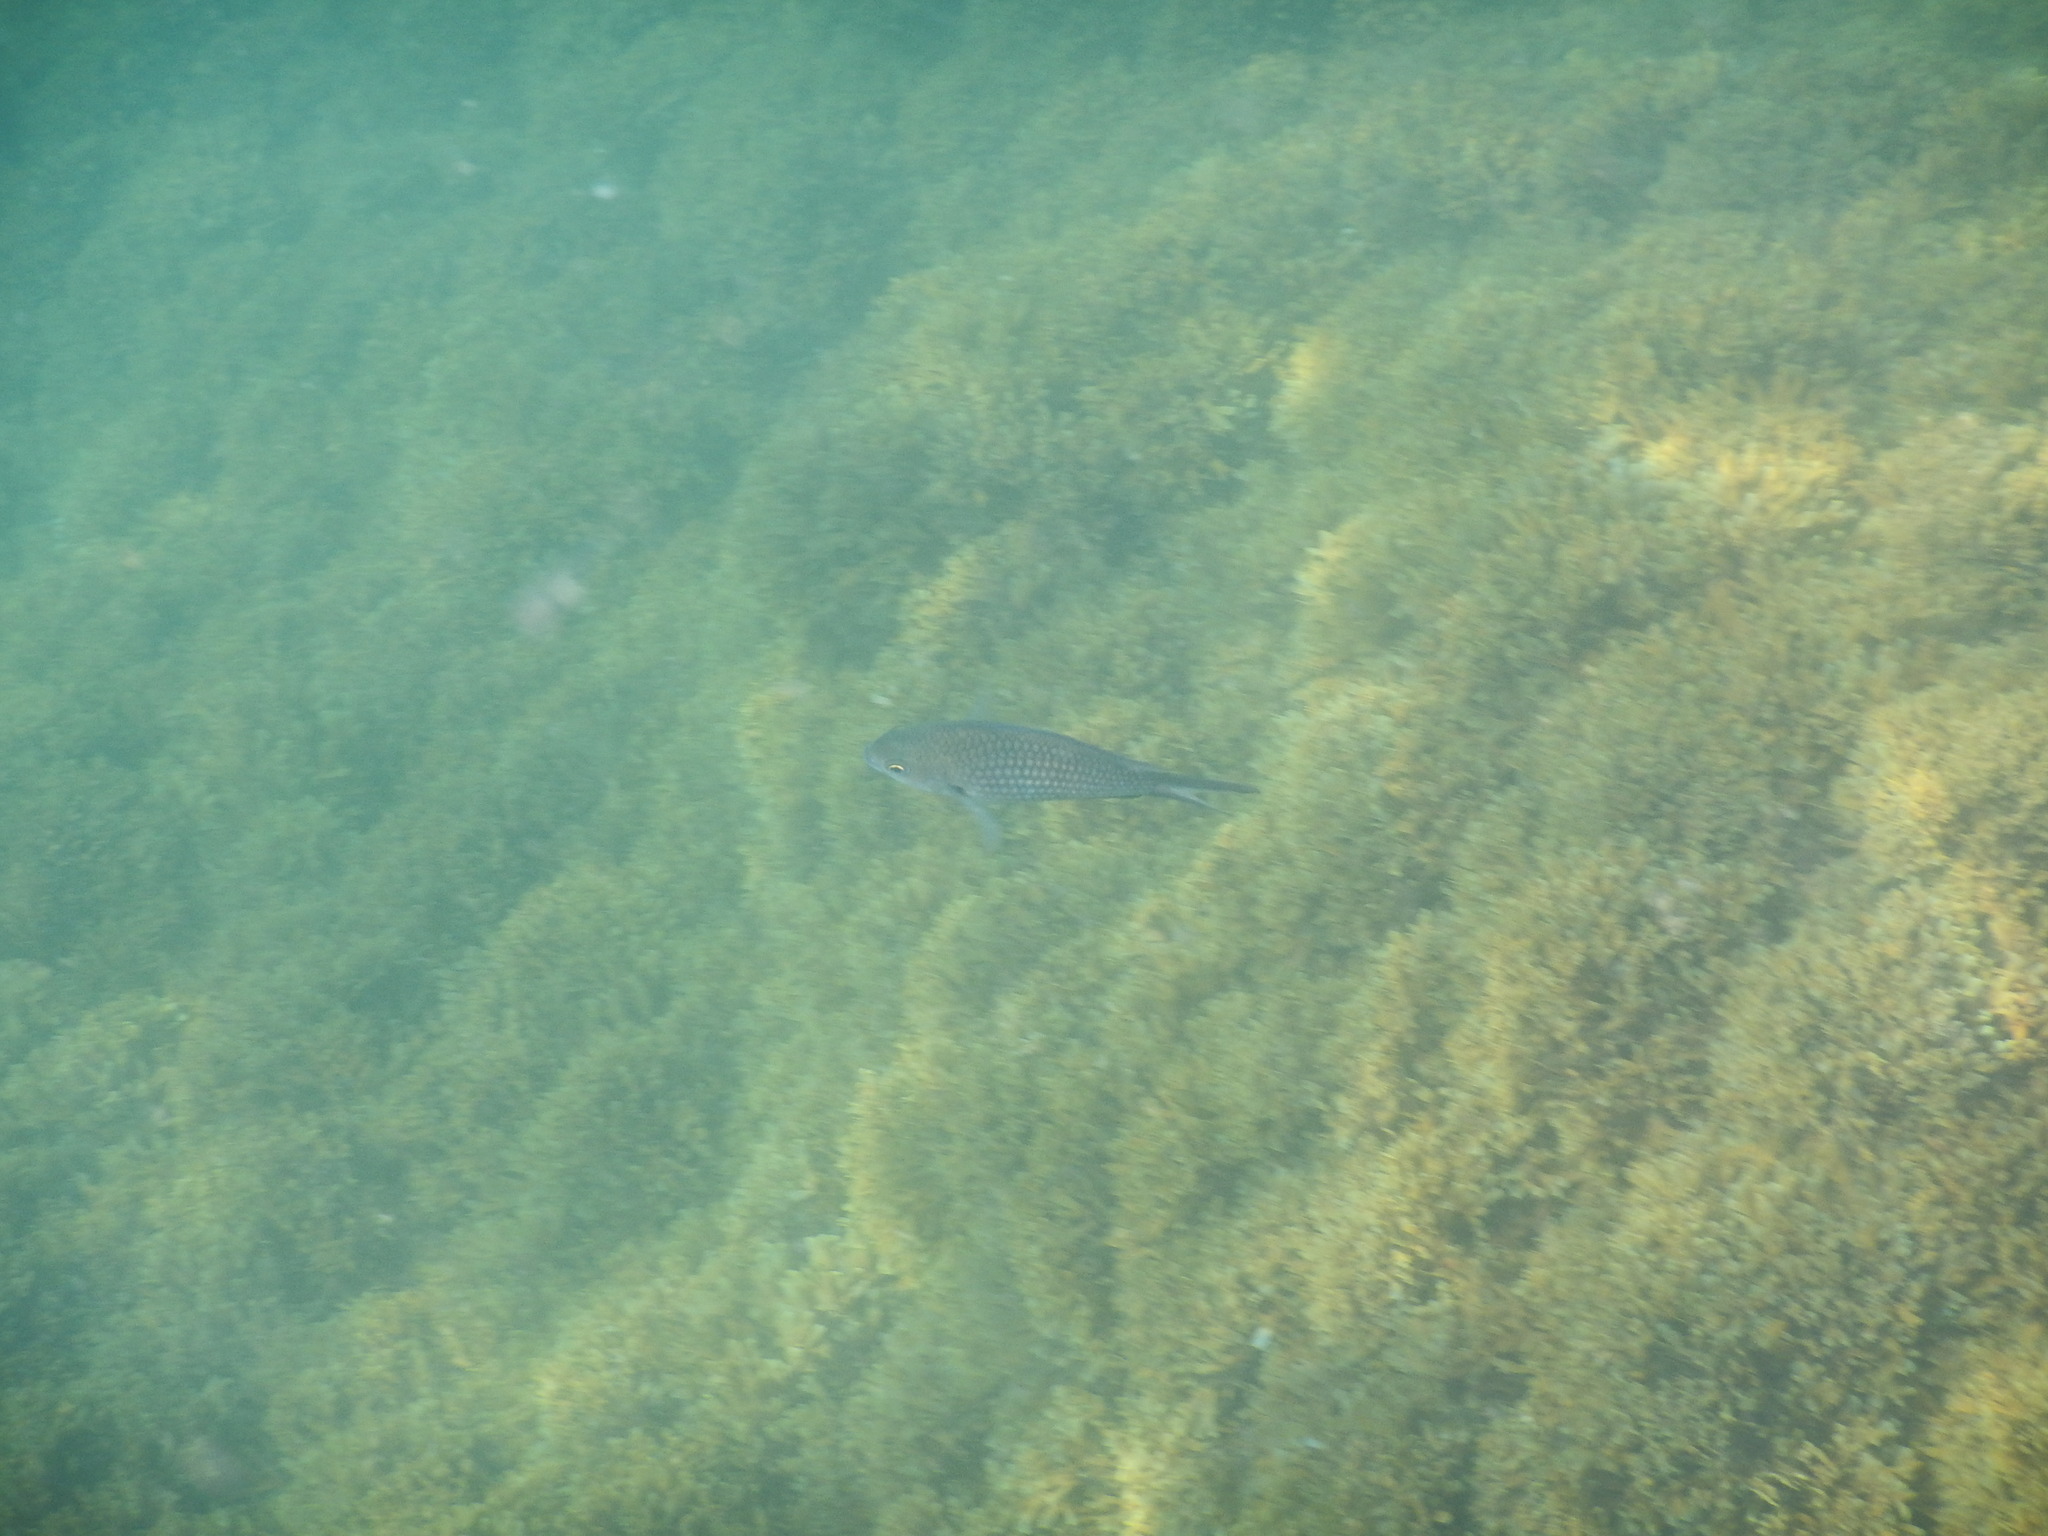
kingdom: Animalia
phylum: Chordata
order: Perciformes
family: Pomacentridae
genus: Chromis
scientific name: Chromis chromis
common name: Damselfish
